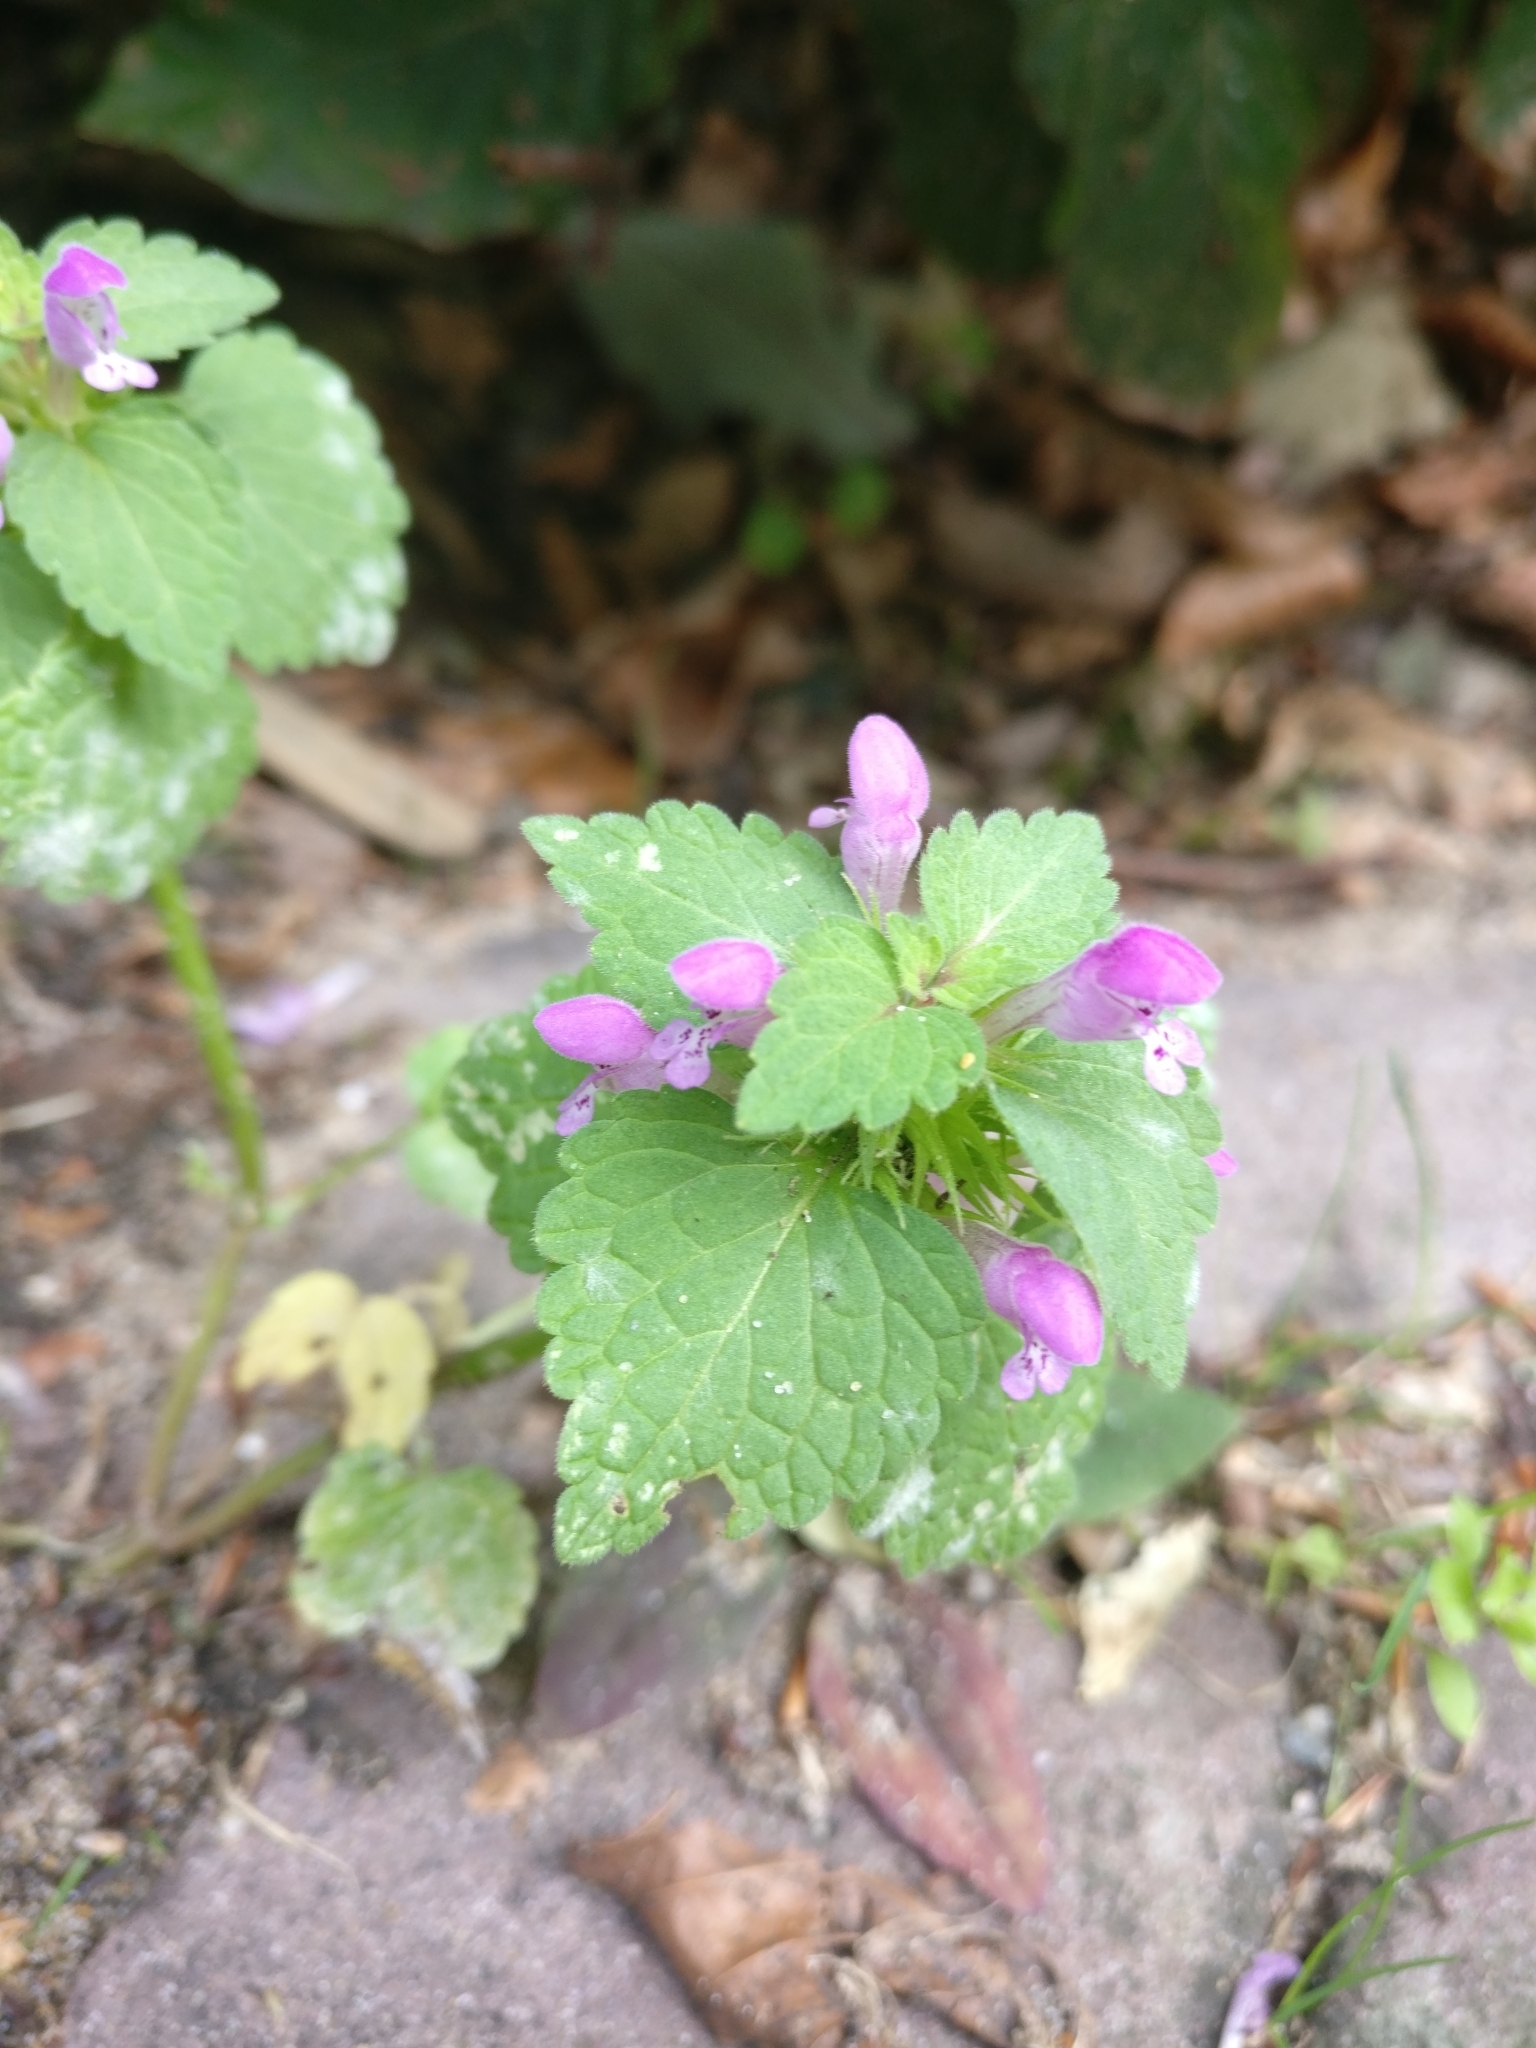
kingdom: Plantae
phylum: Tracheophyta
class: Magnoliopsida
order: Lamiales
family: Lamiaceae
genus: Lamium
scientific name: Lamium purpureum
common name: Red dead-nettle
